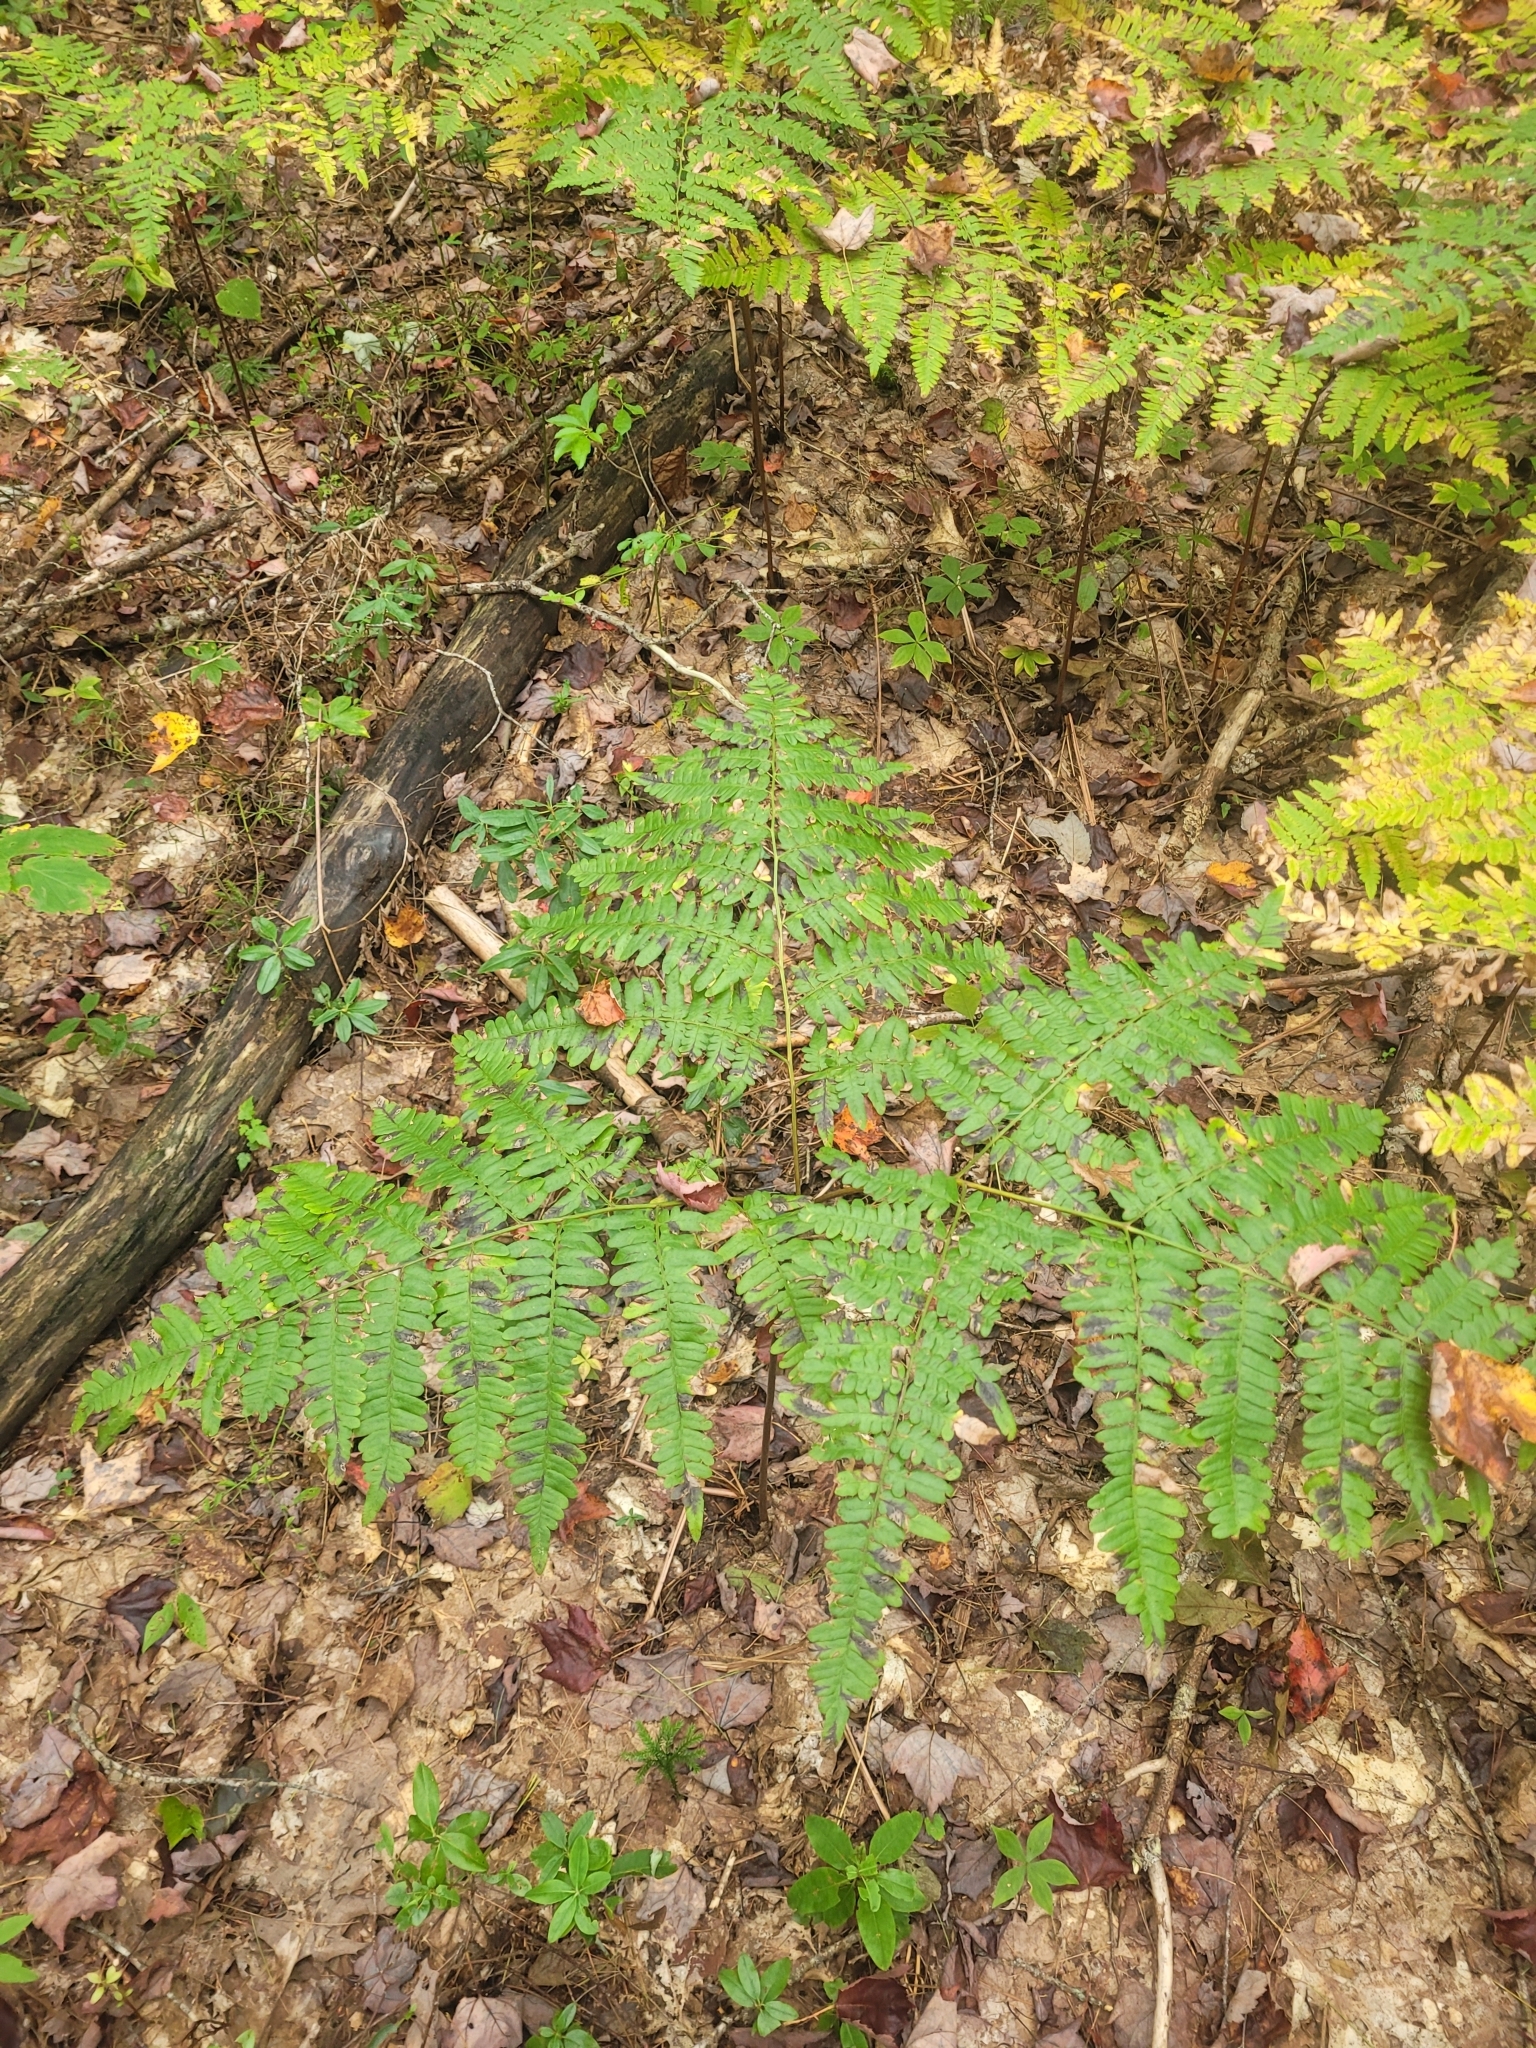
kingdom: Plantae
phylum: Tracheophyta
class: Polypodiopsida
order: Polypodiales
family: Dennstaedtiaceae
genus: Pteridium
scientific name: Pteridium aquilinum
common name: Bracken
